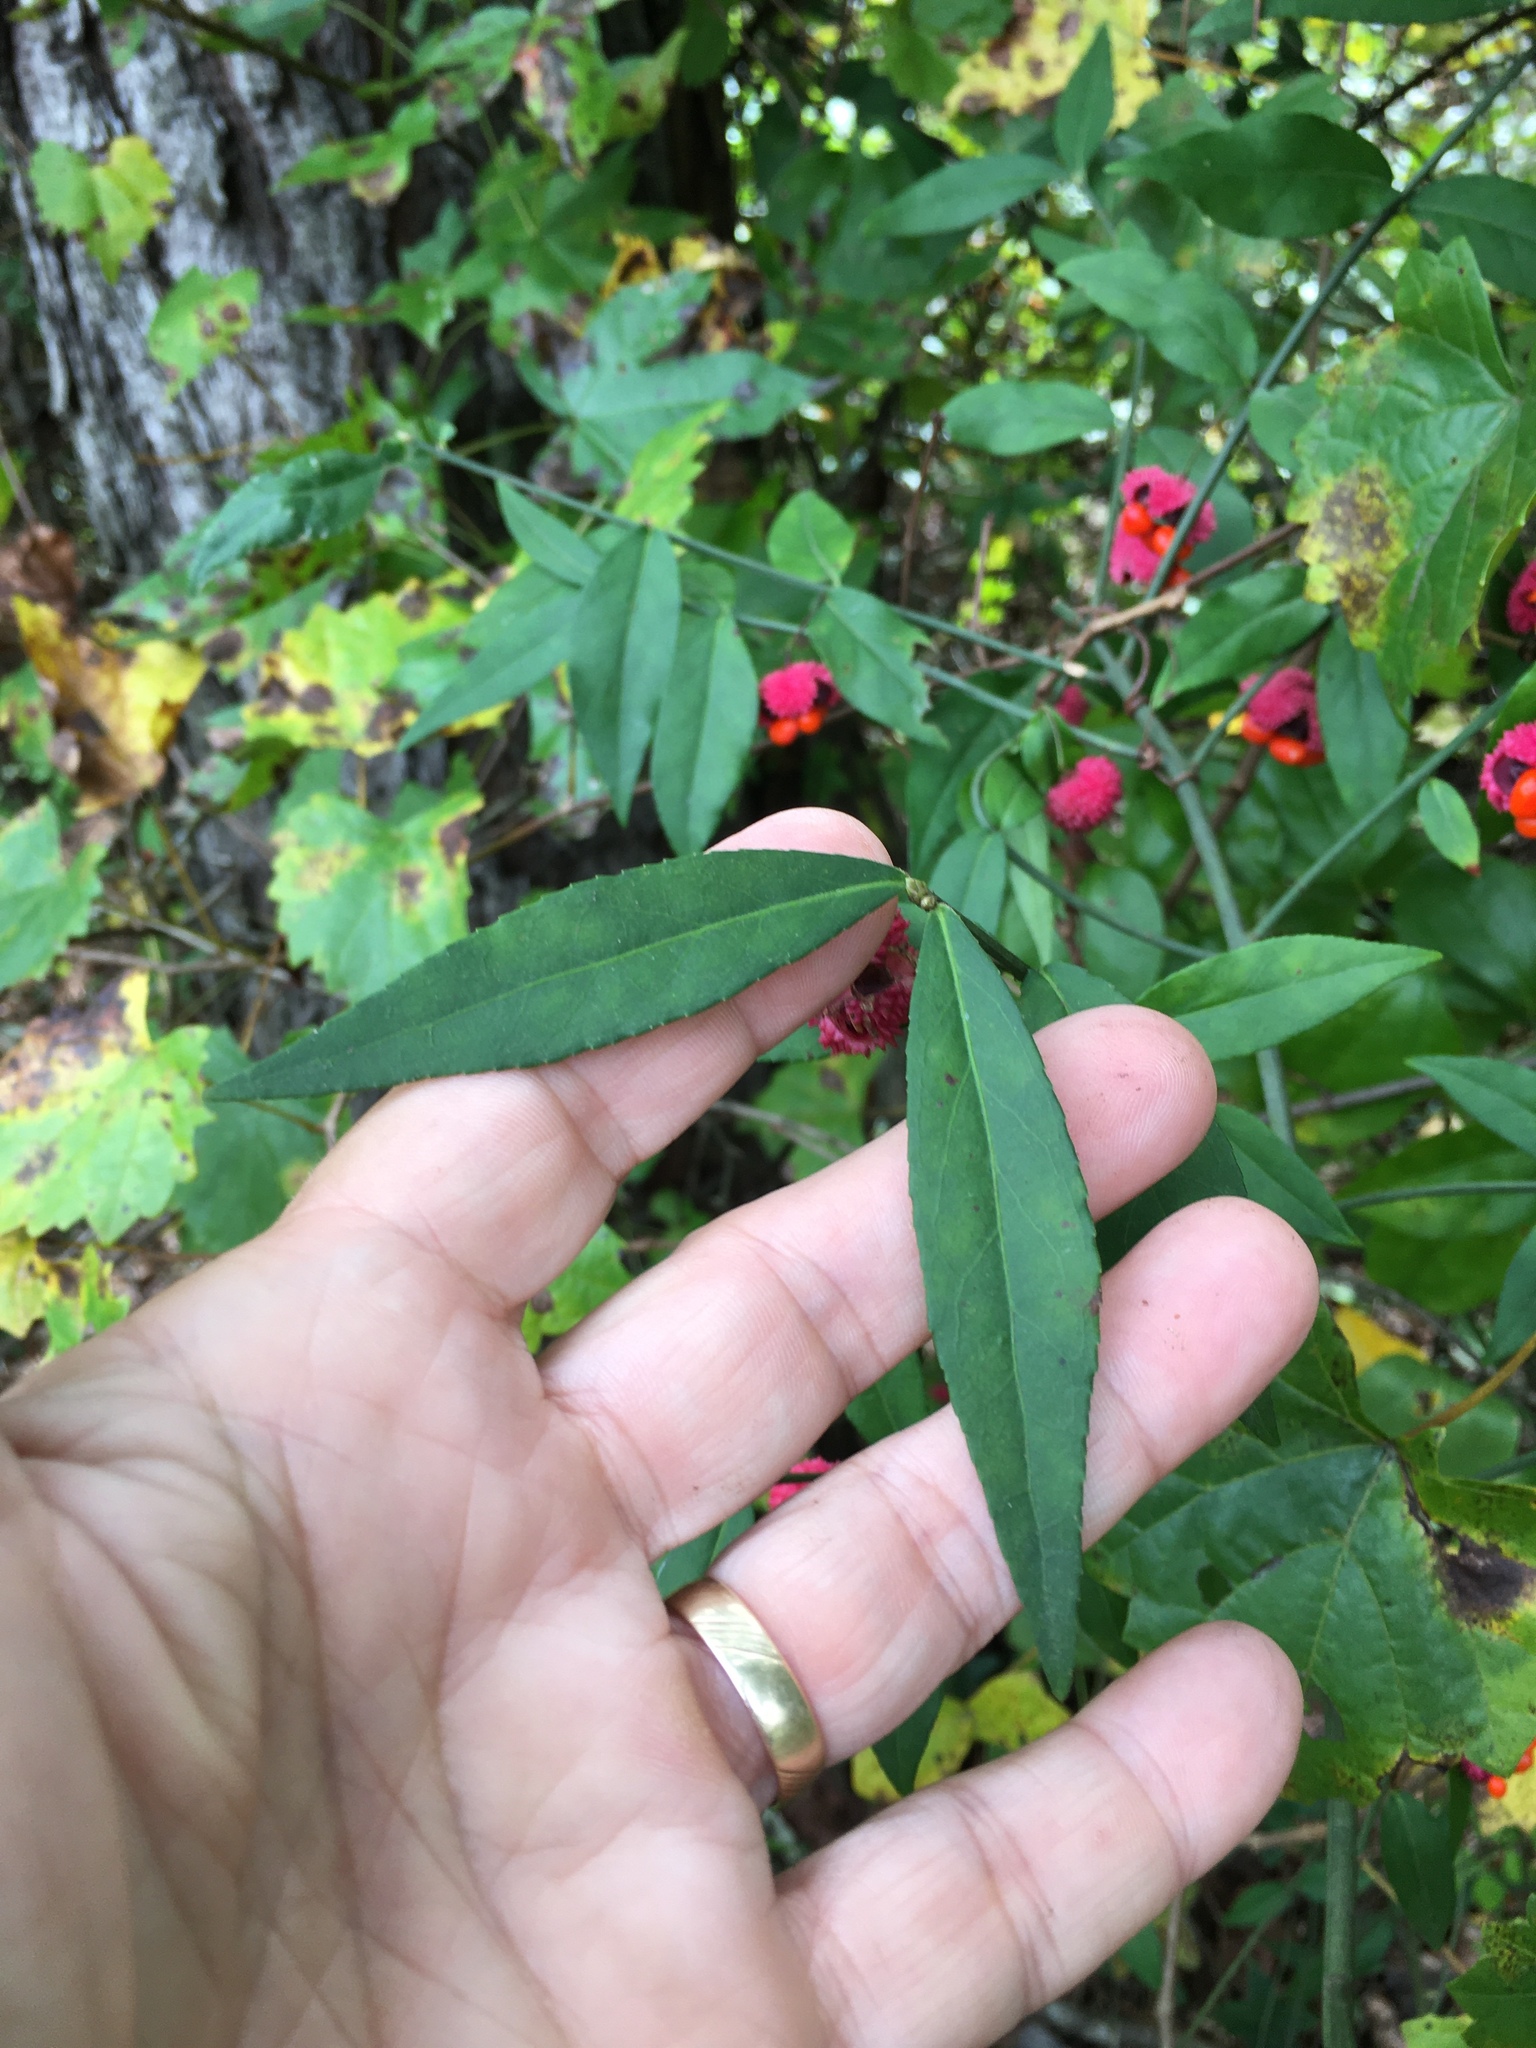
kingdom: Plantae
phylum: Tracheophyta
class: Magnoliopsida
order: Celastrales
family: Celastraceae
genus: Euonymus
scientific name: Euonymus americanus
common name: Bursting-heart
